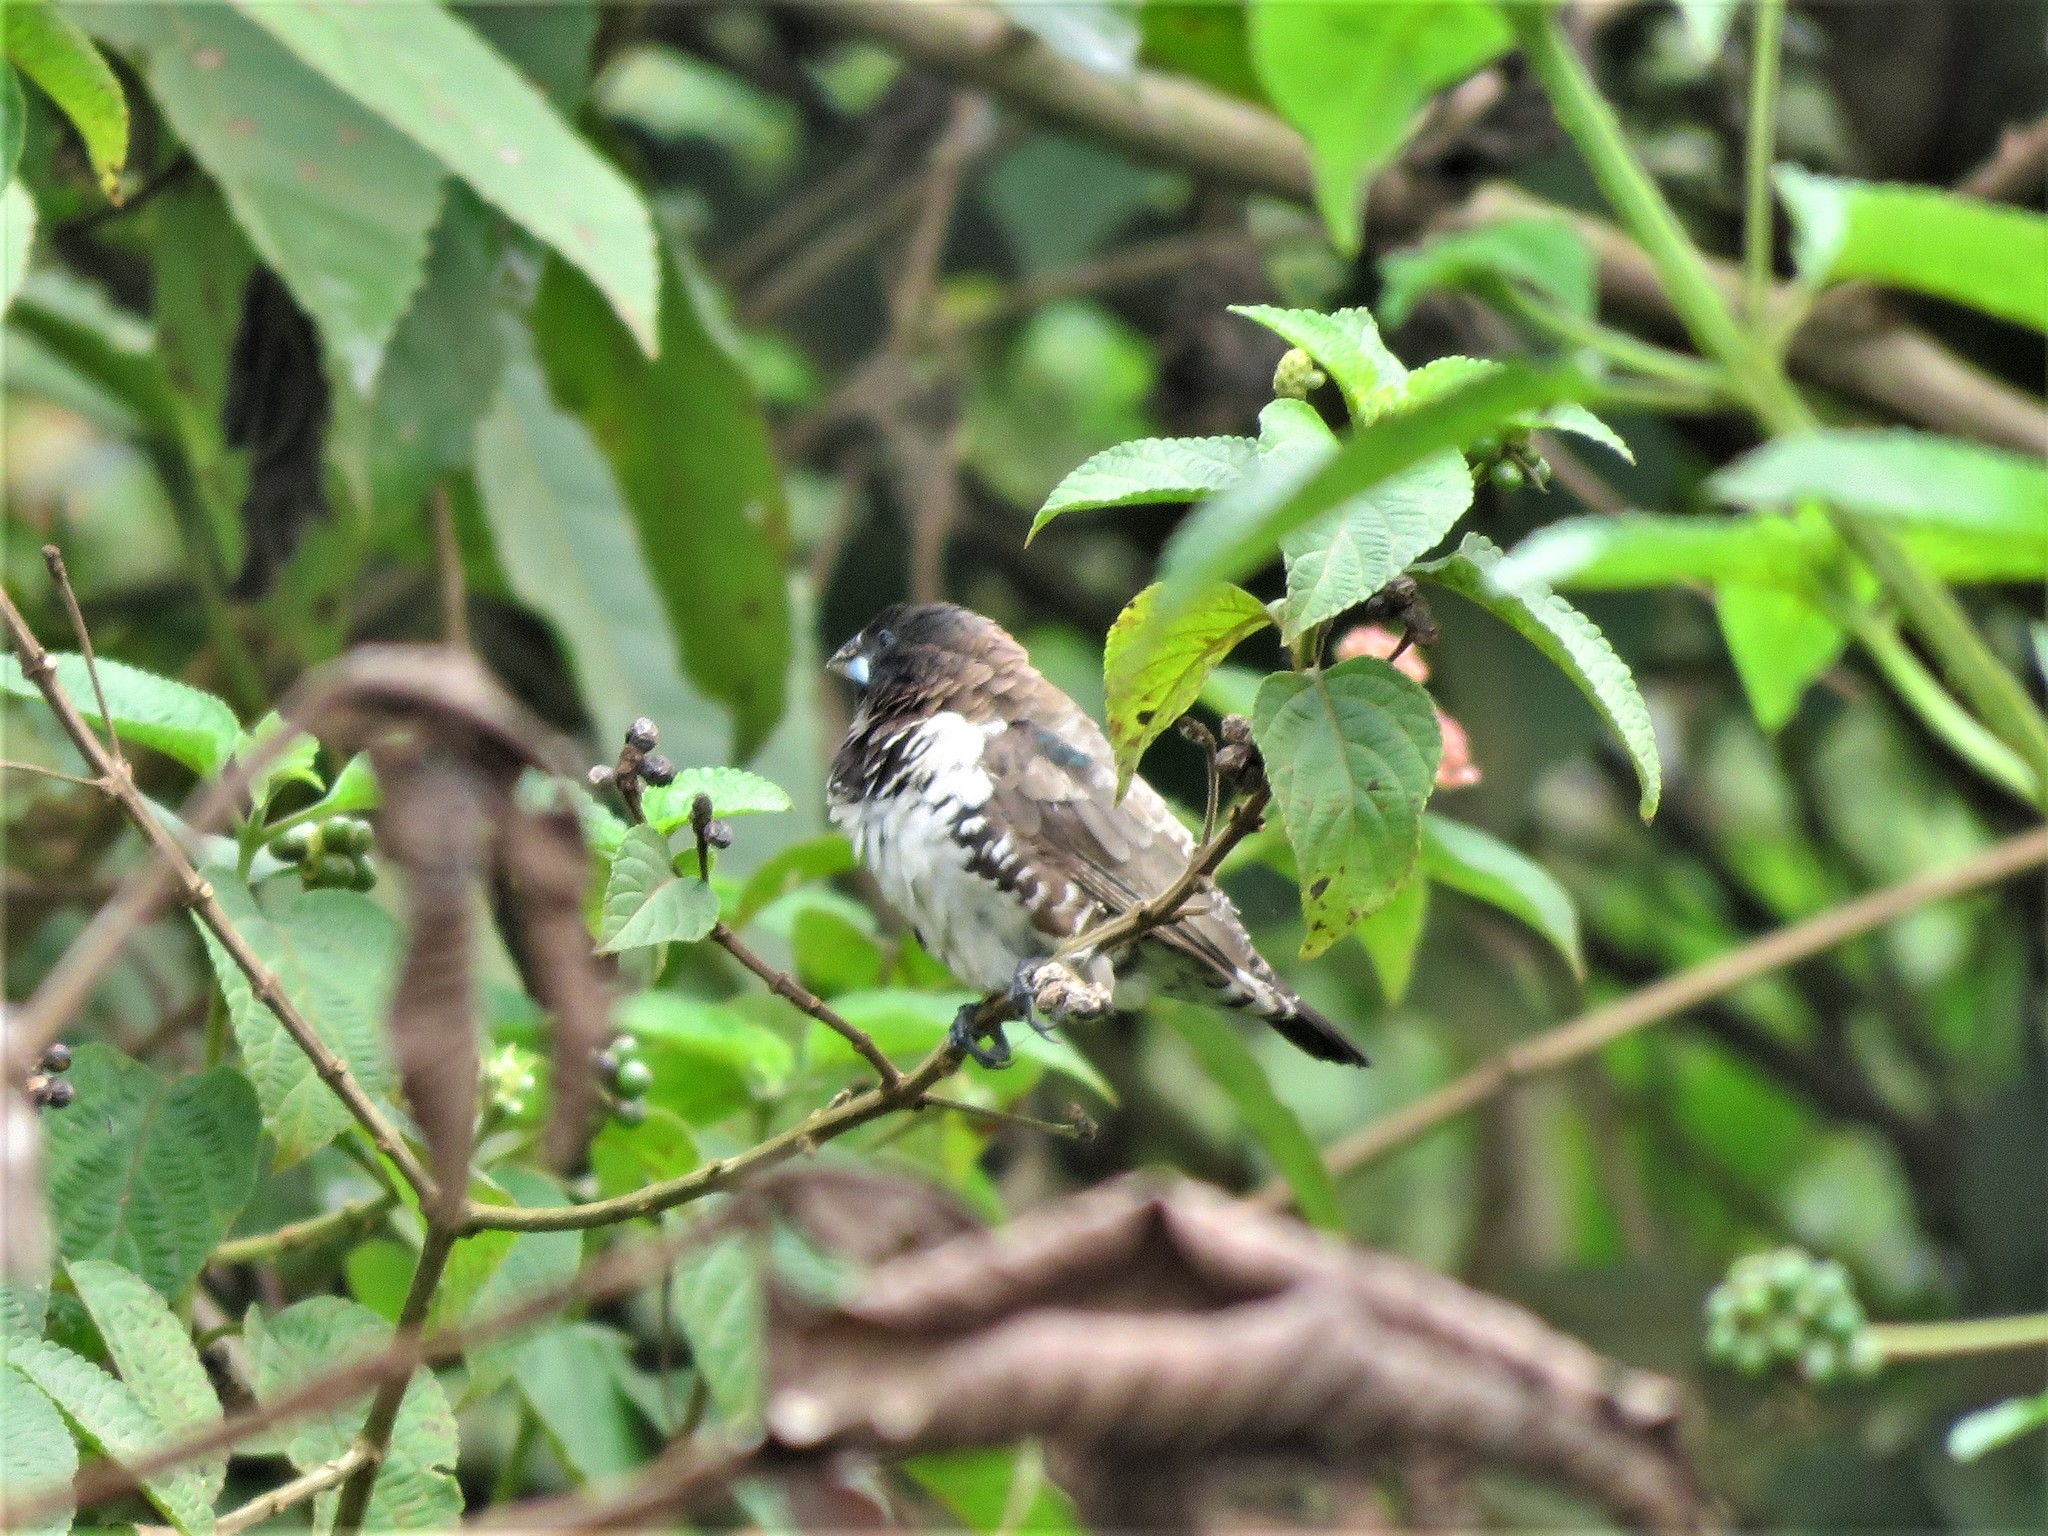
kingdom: Animalia
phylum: Chordata
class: Aves
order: Passeriformes
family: Estrildidae
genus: Lonchura
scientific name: Lonchura cucullata
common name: Bronze mannikin
